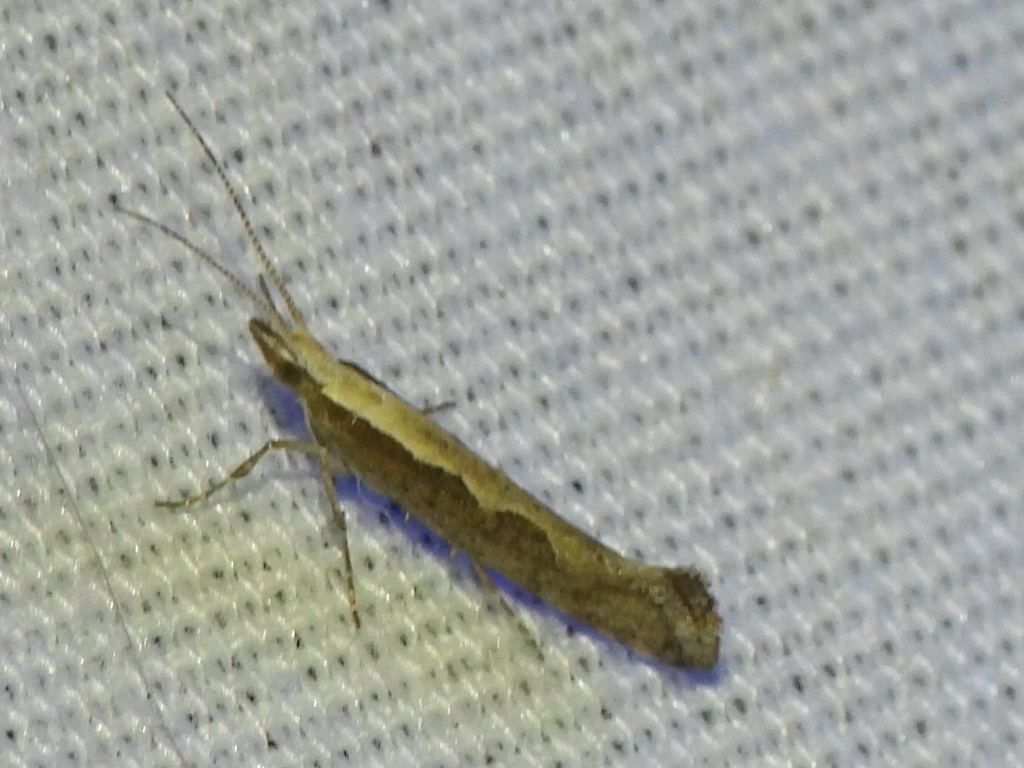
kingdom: Animalia
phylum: Arthropoda
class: Insecta
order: Lepidoptera
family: Plutellidae
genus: Plutella
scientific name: Plutella xylostella
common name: Diamond-back moth
